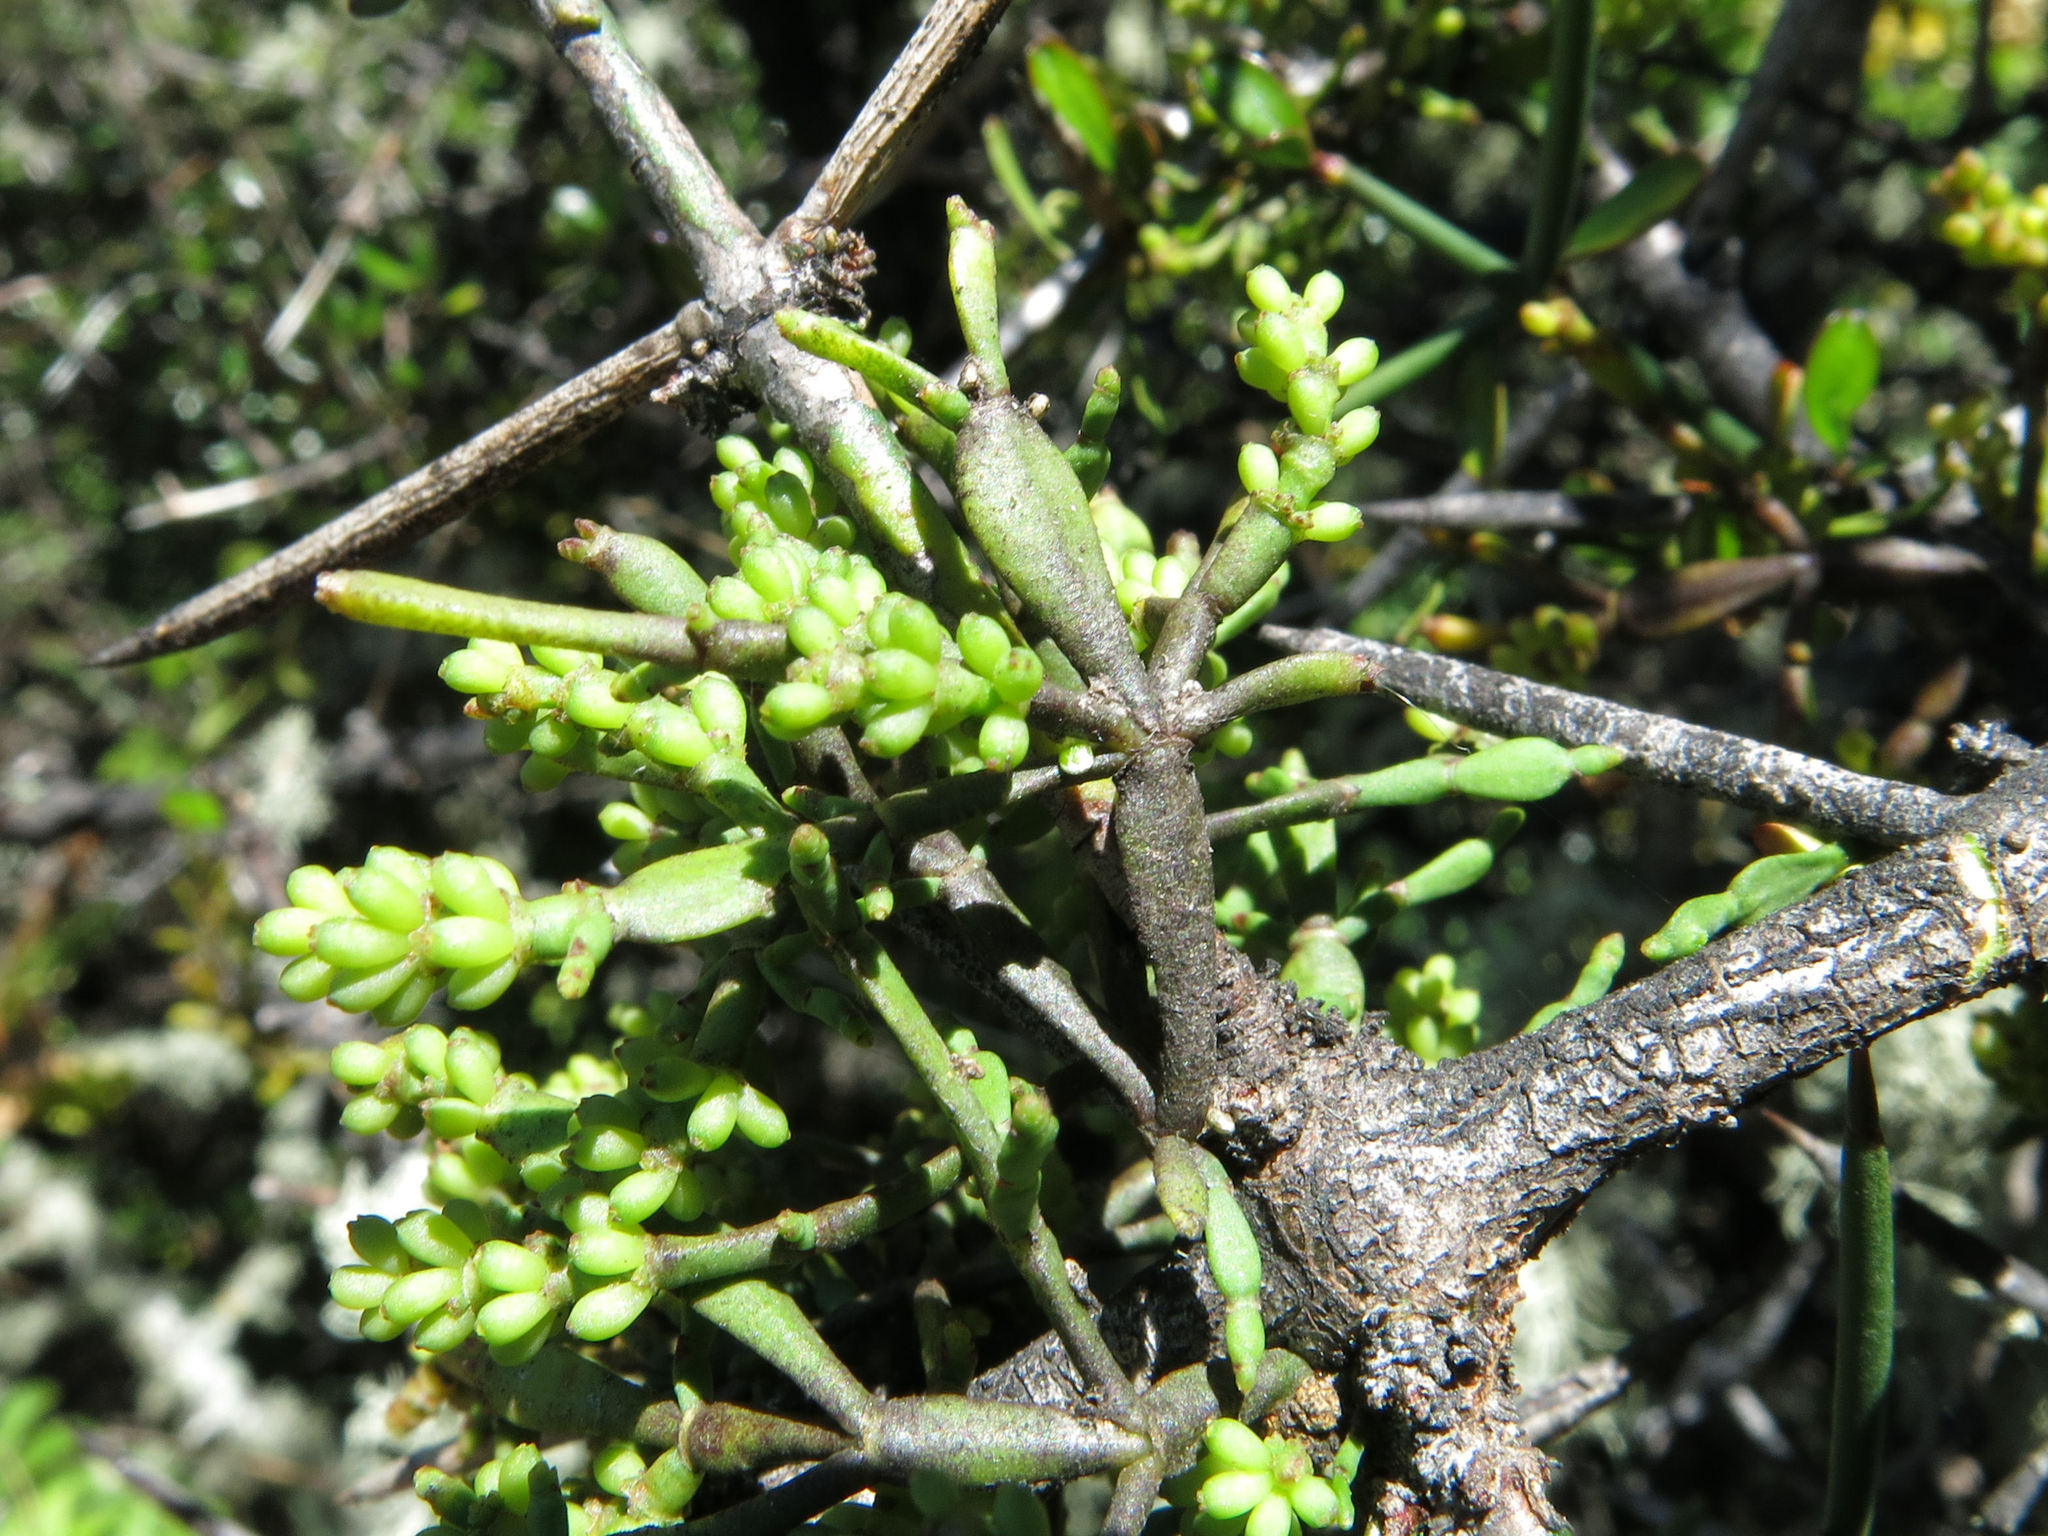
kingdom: Plantae
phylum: Tracheophyta
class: Magnoliopsida
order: Santalales
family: Viscaceae
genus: Korthalsella
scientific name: Korthalsella clavata
